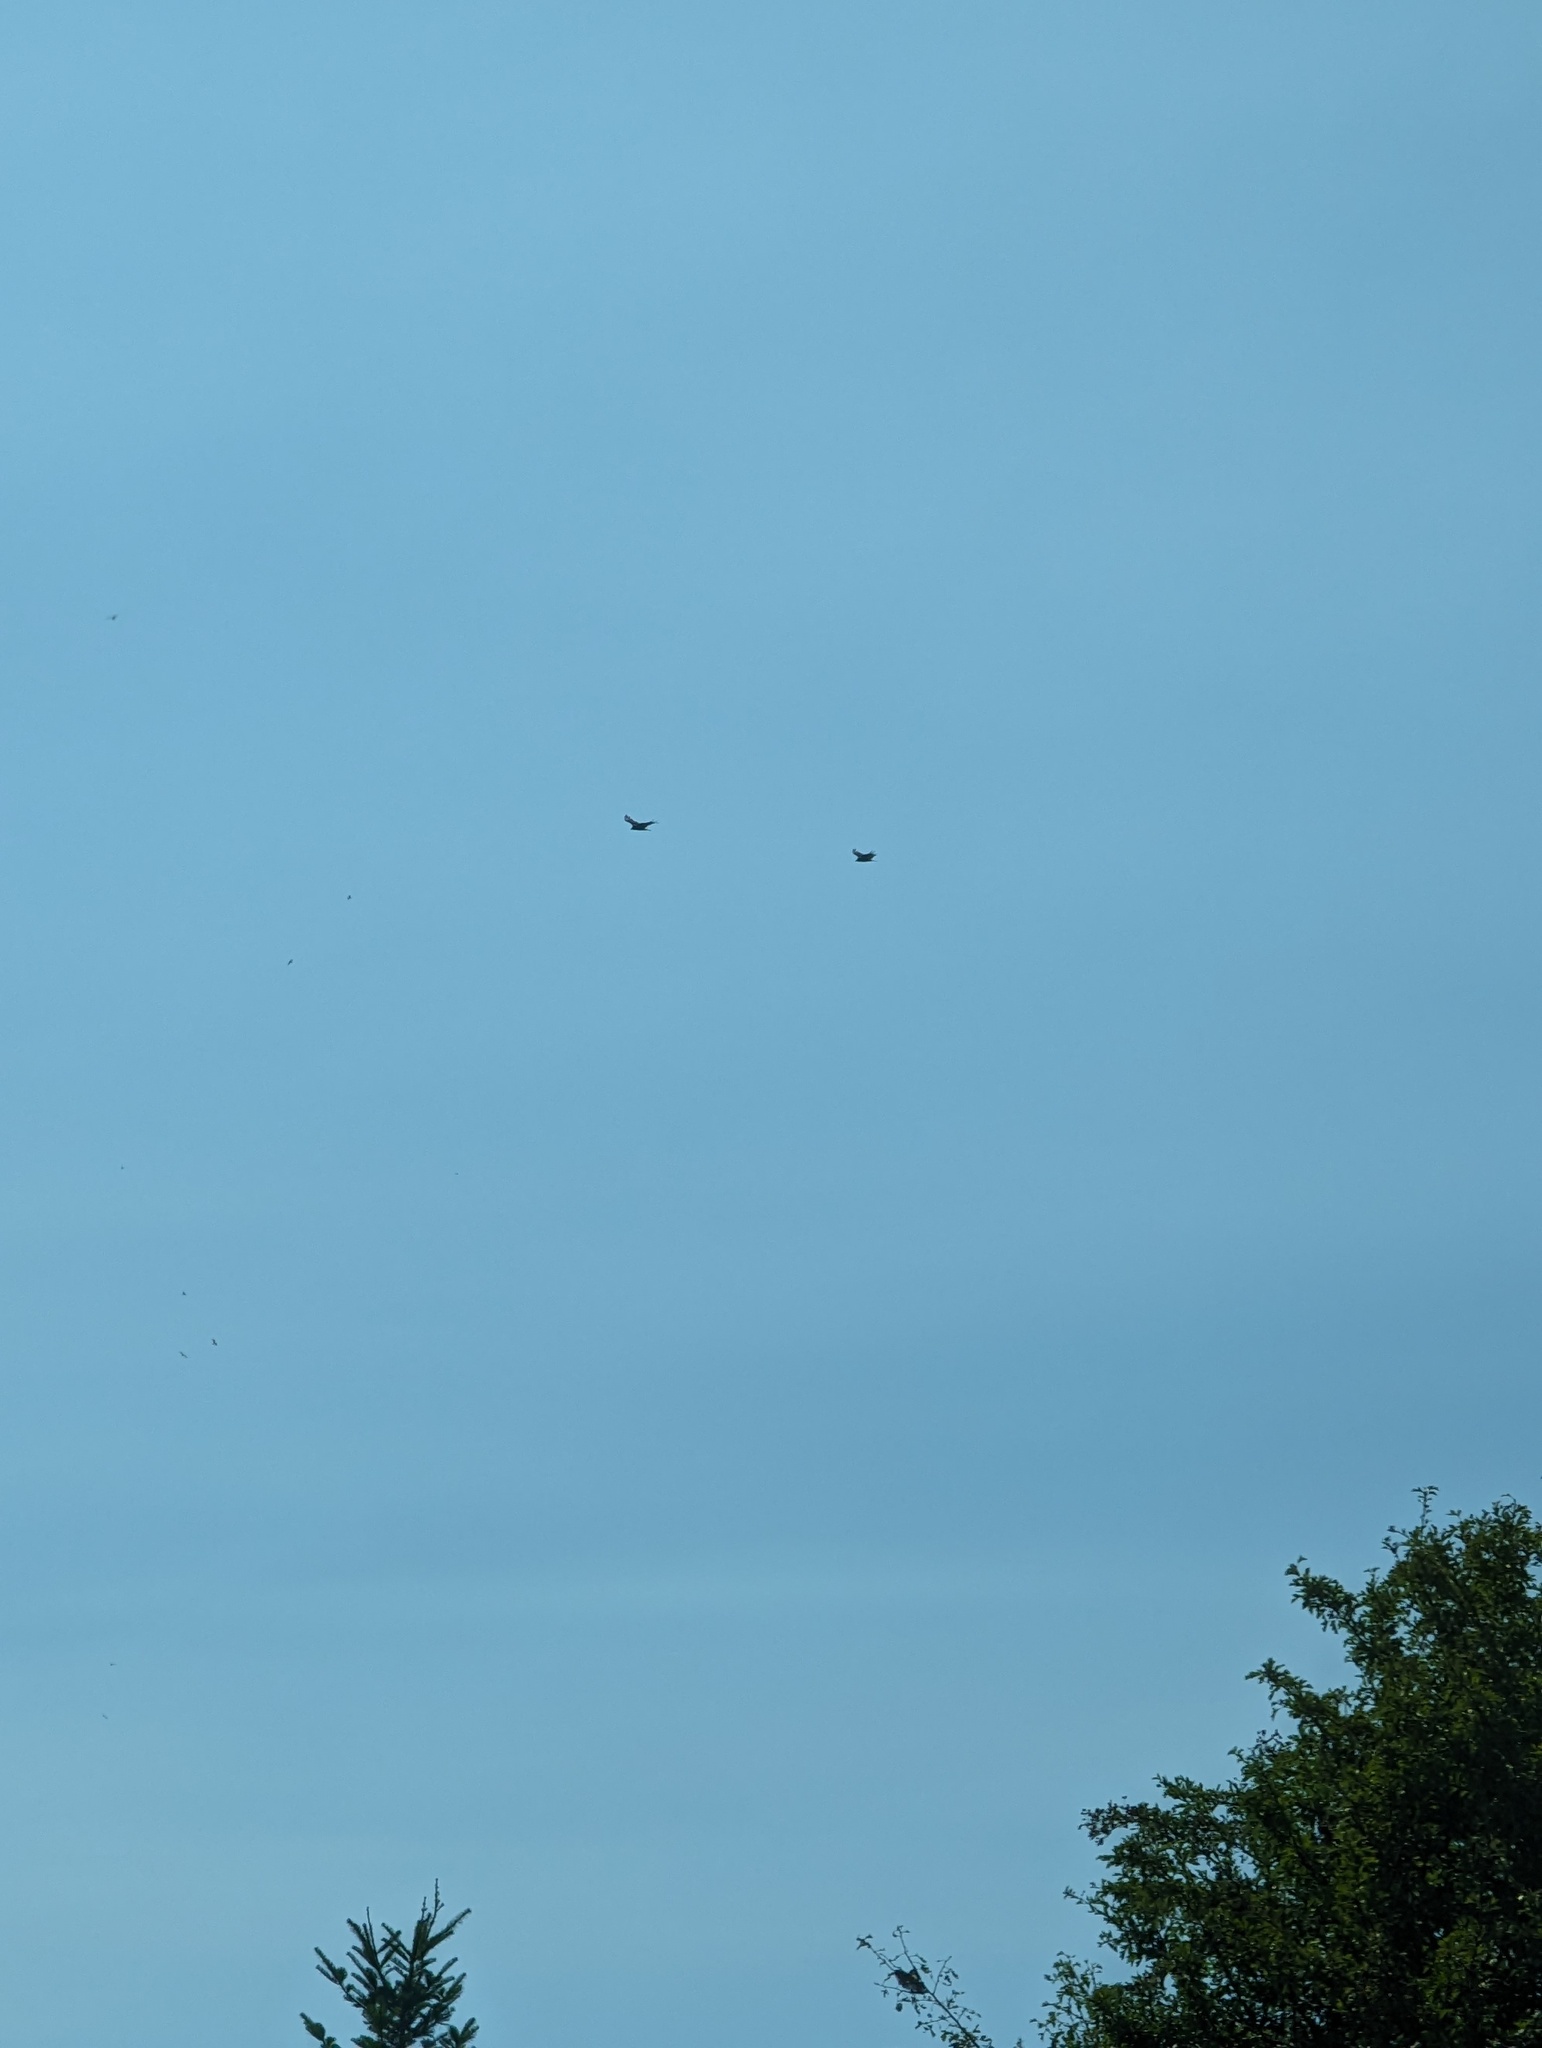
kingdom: Animalia
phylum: Chordata
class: Aves
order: Accipitriformes
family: Cathartidae
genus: Cathartes
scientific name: Cathartes aura
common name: Turkey vulture
